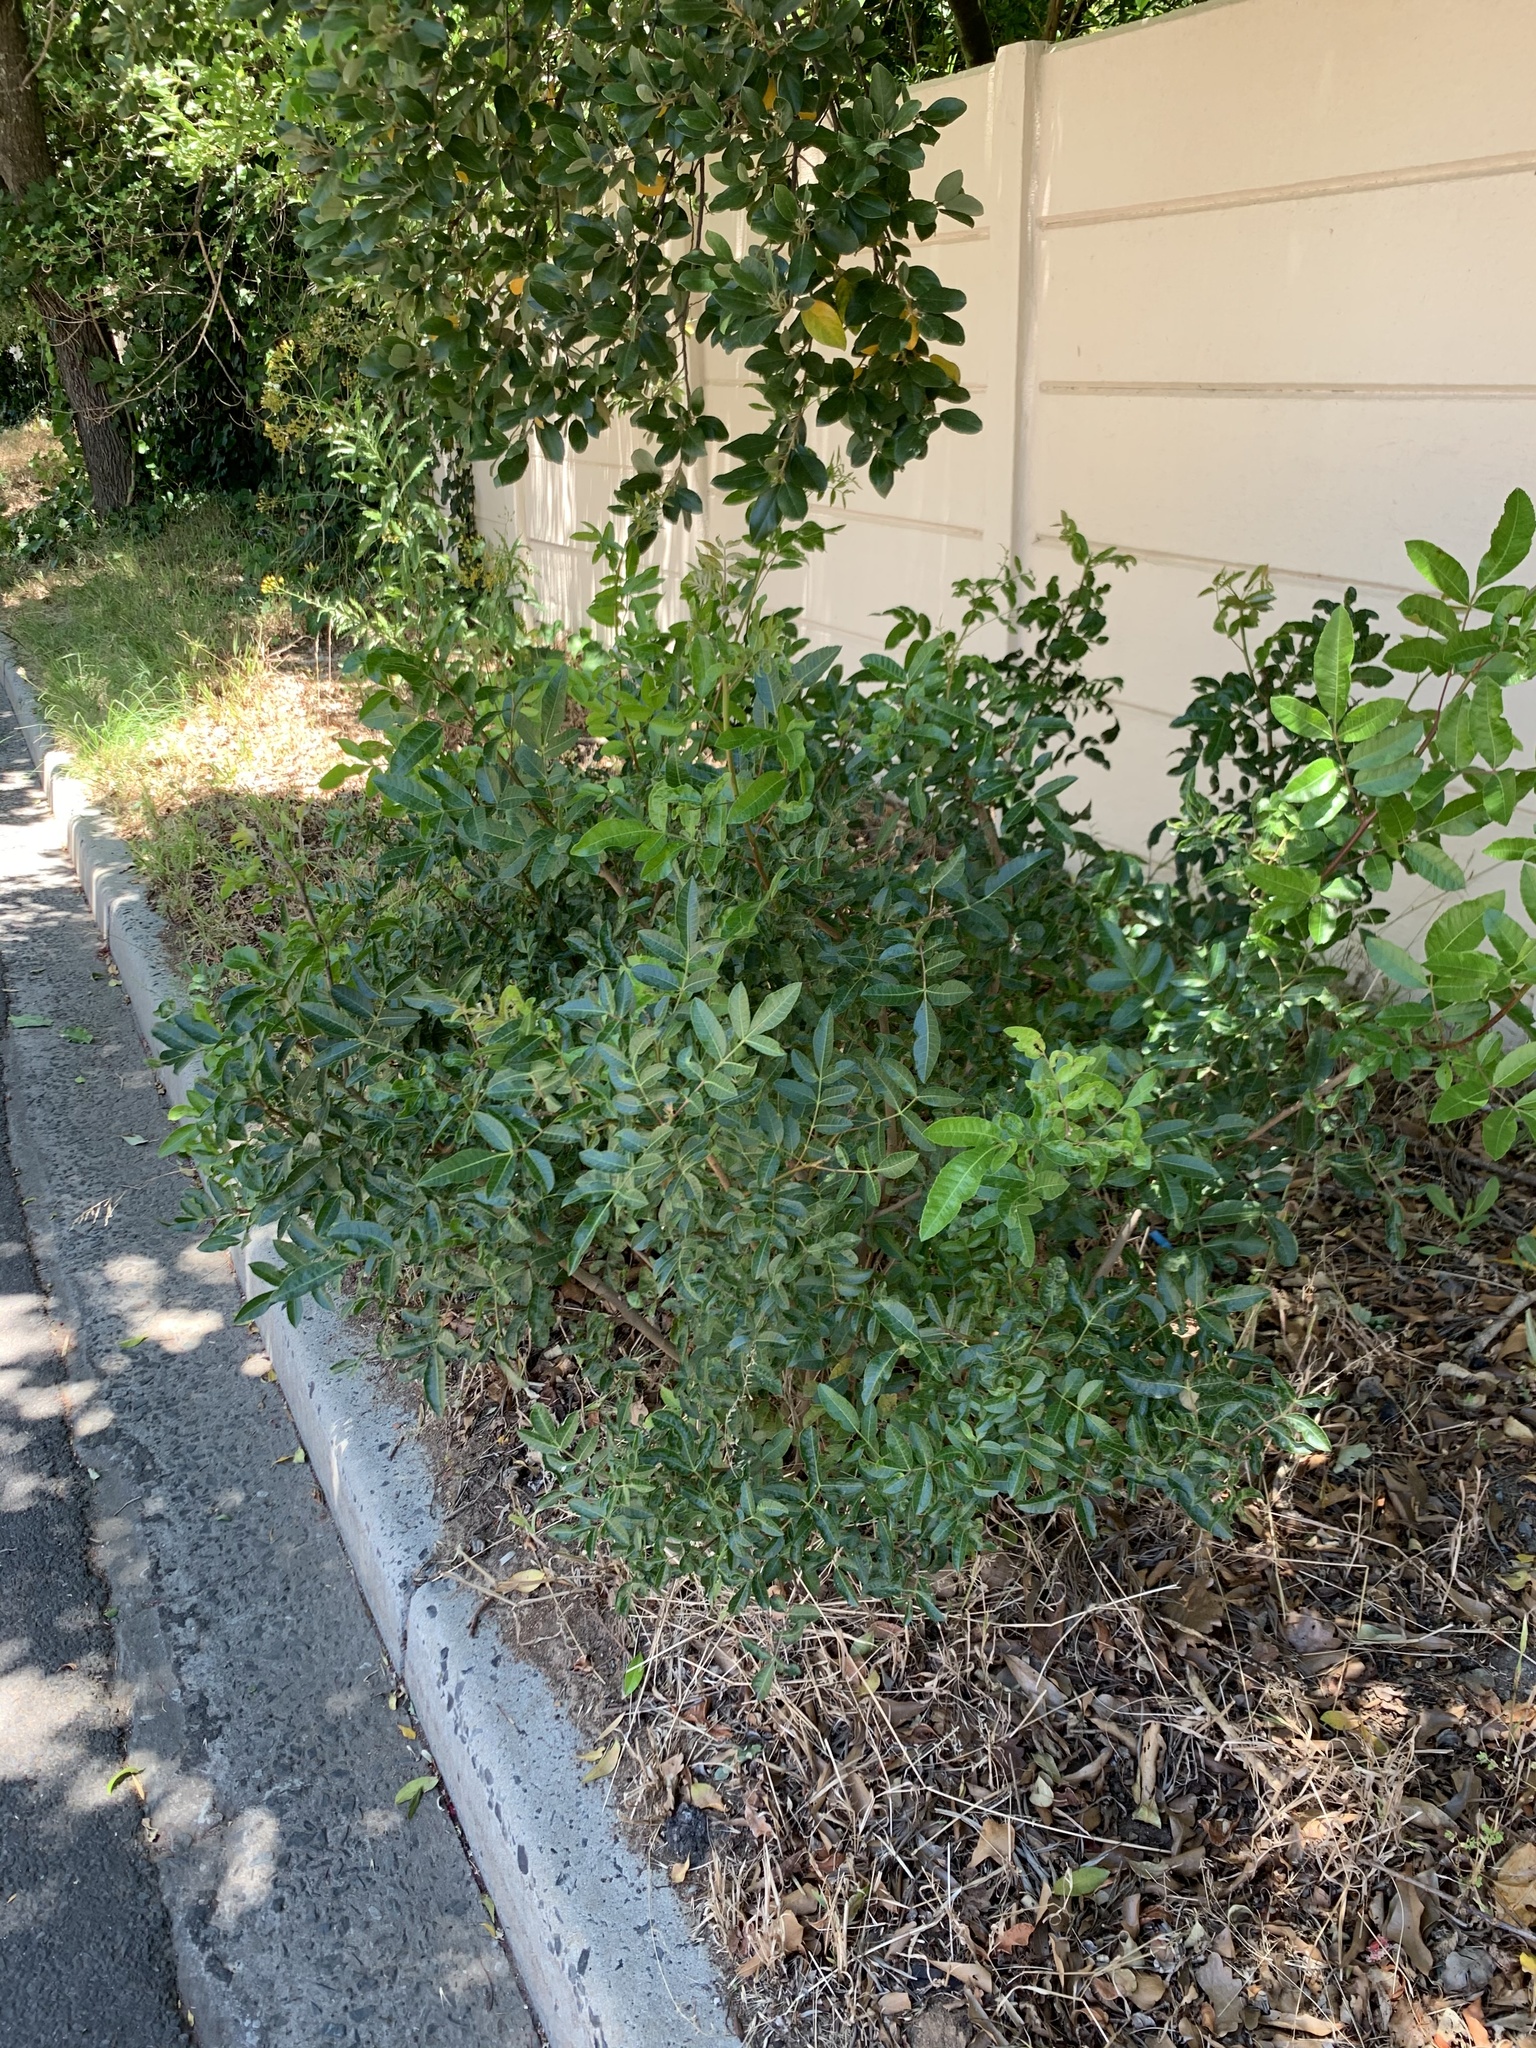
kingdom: Plantae
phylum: Tracheophyta
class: Magnoliopsida
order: Sapindales
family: Anacardiaceae
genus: Schinus
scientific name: Schinus terebinthifolia
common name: Brazilian peppertree
